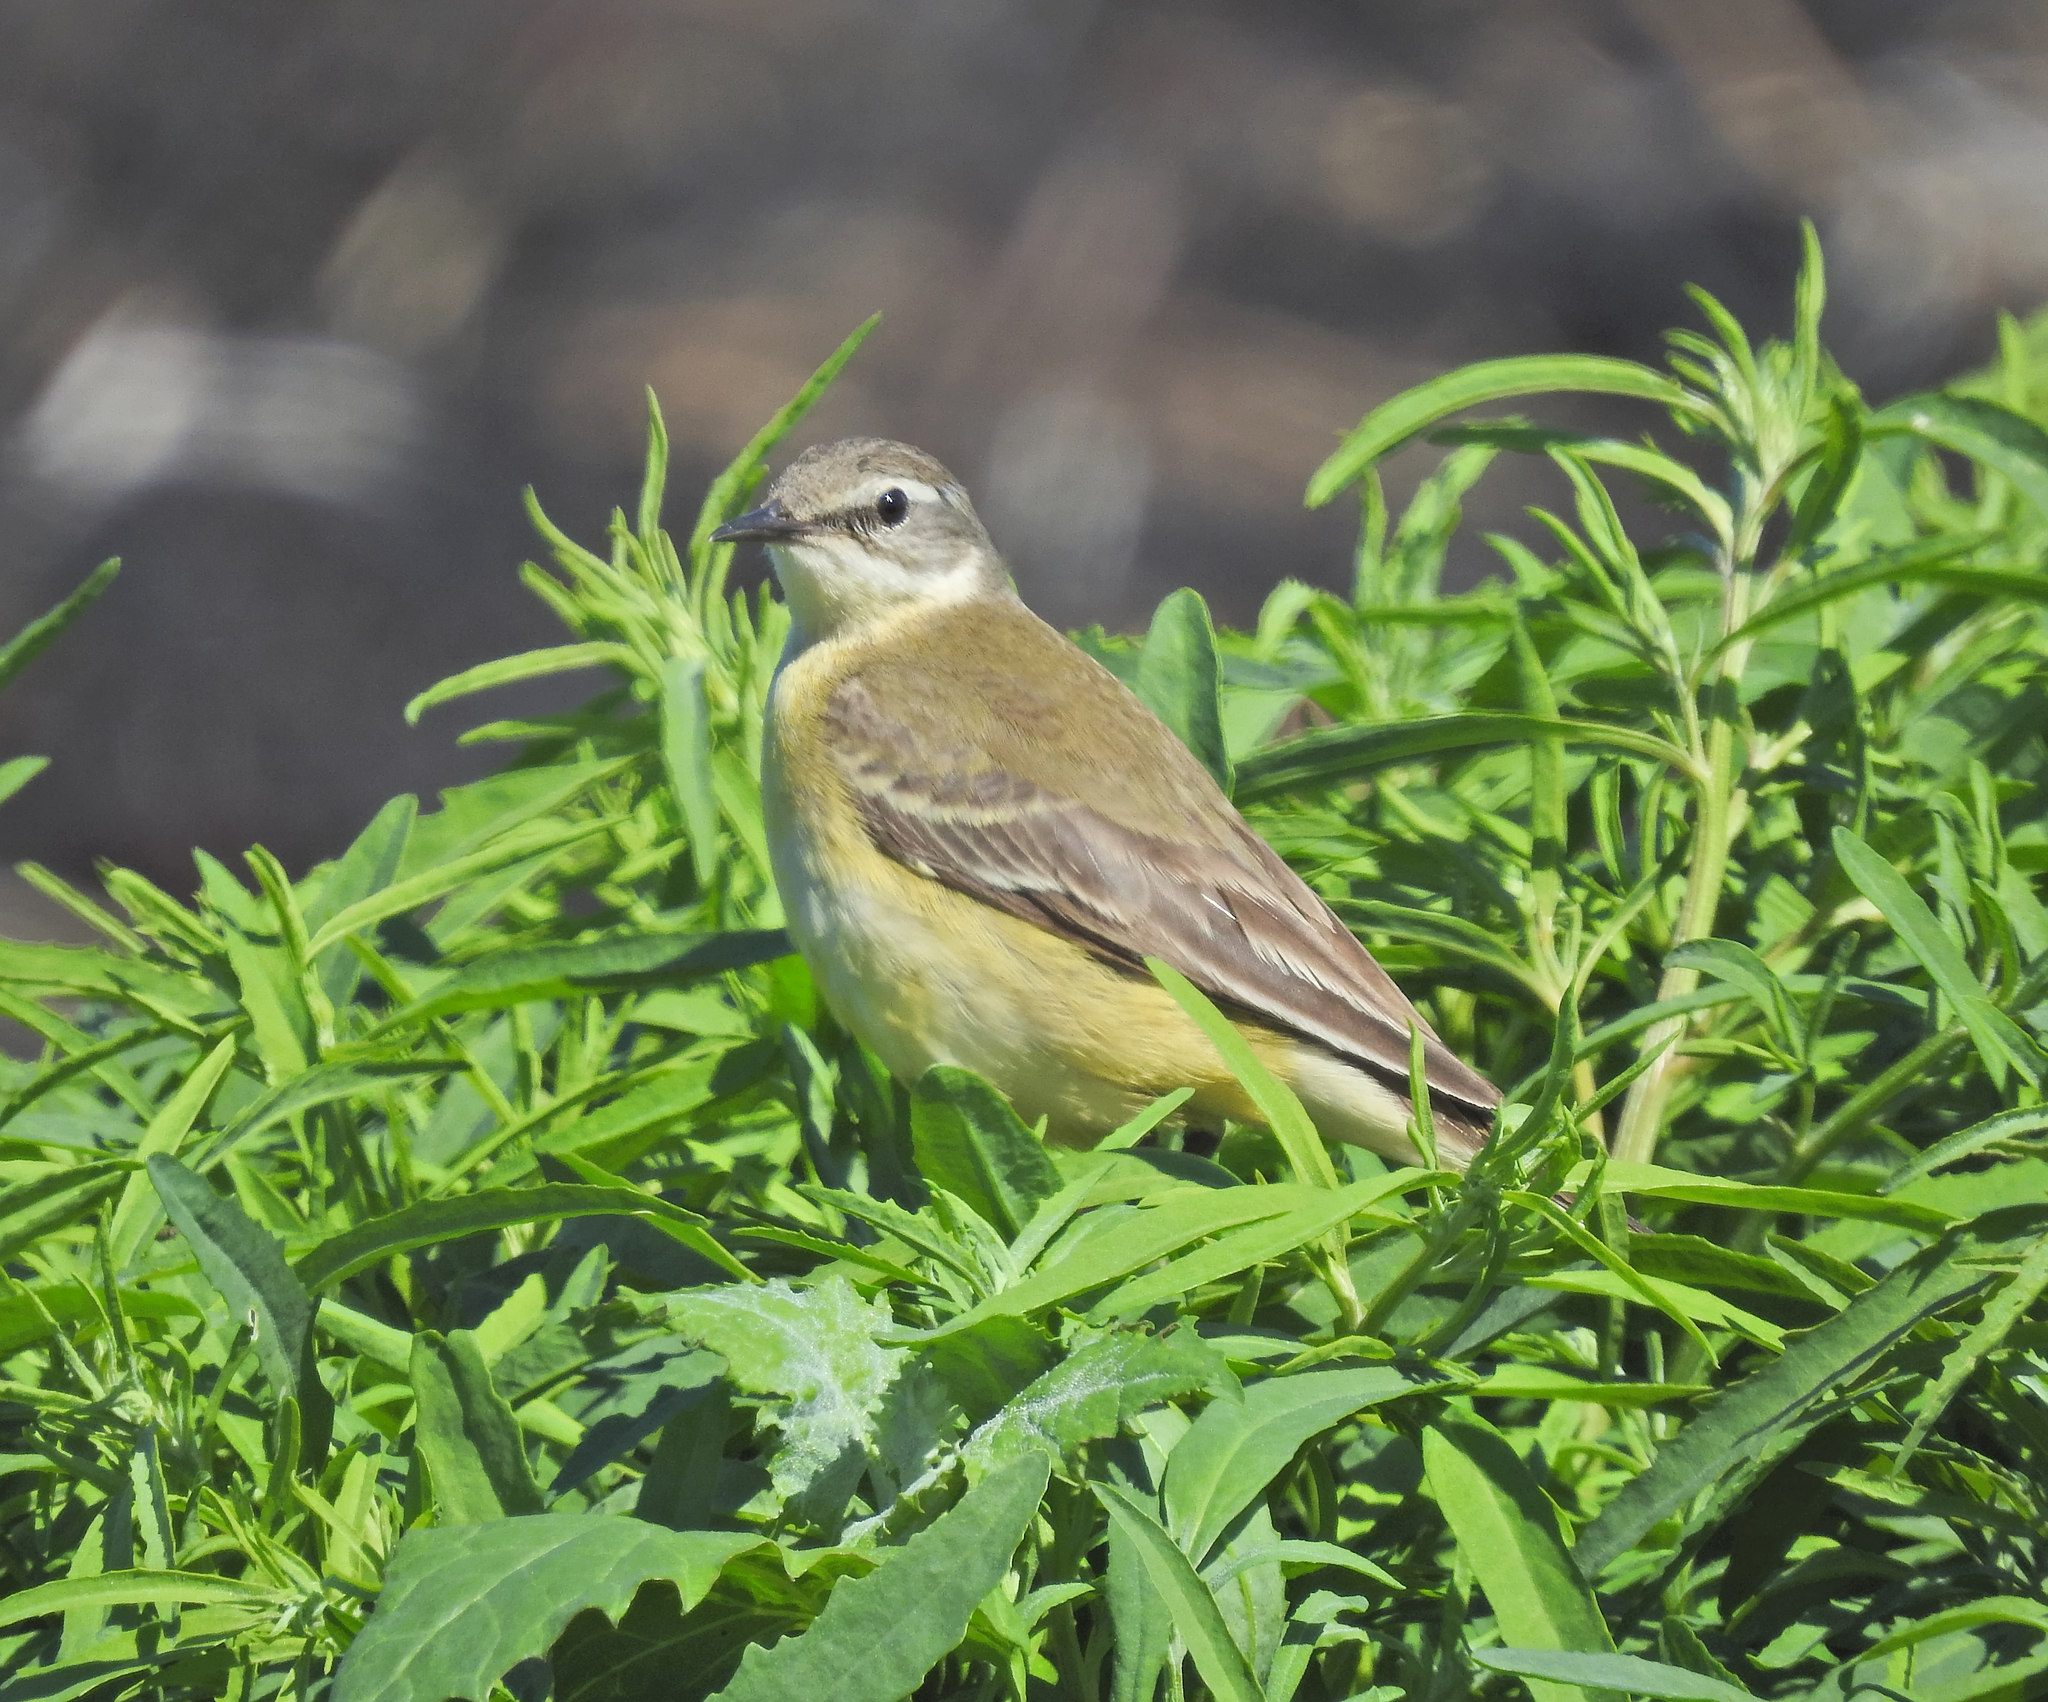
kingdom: Animalia
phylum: Chordata
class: Aves
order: Passeriformes
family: Motacillidae
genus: Motacilla
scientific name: Motacilla flava
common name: Western yellow wagtail
